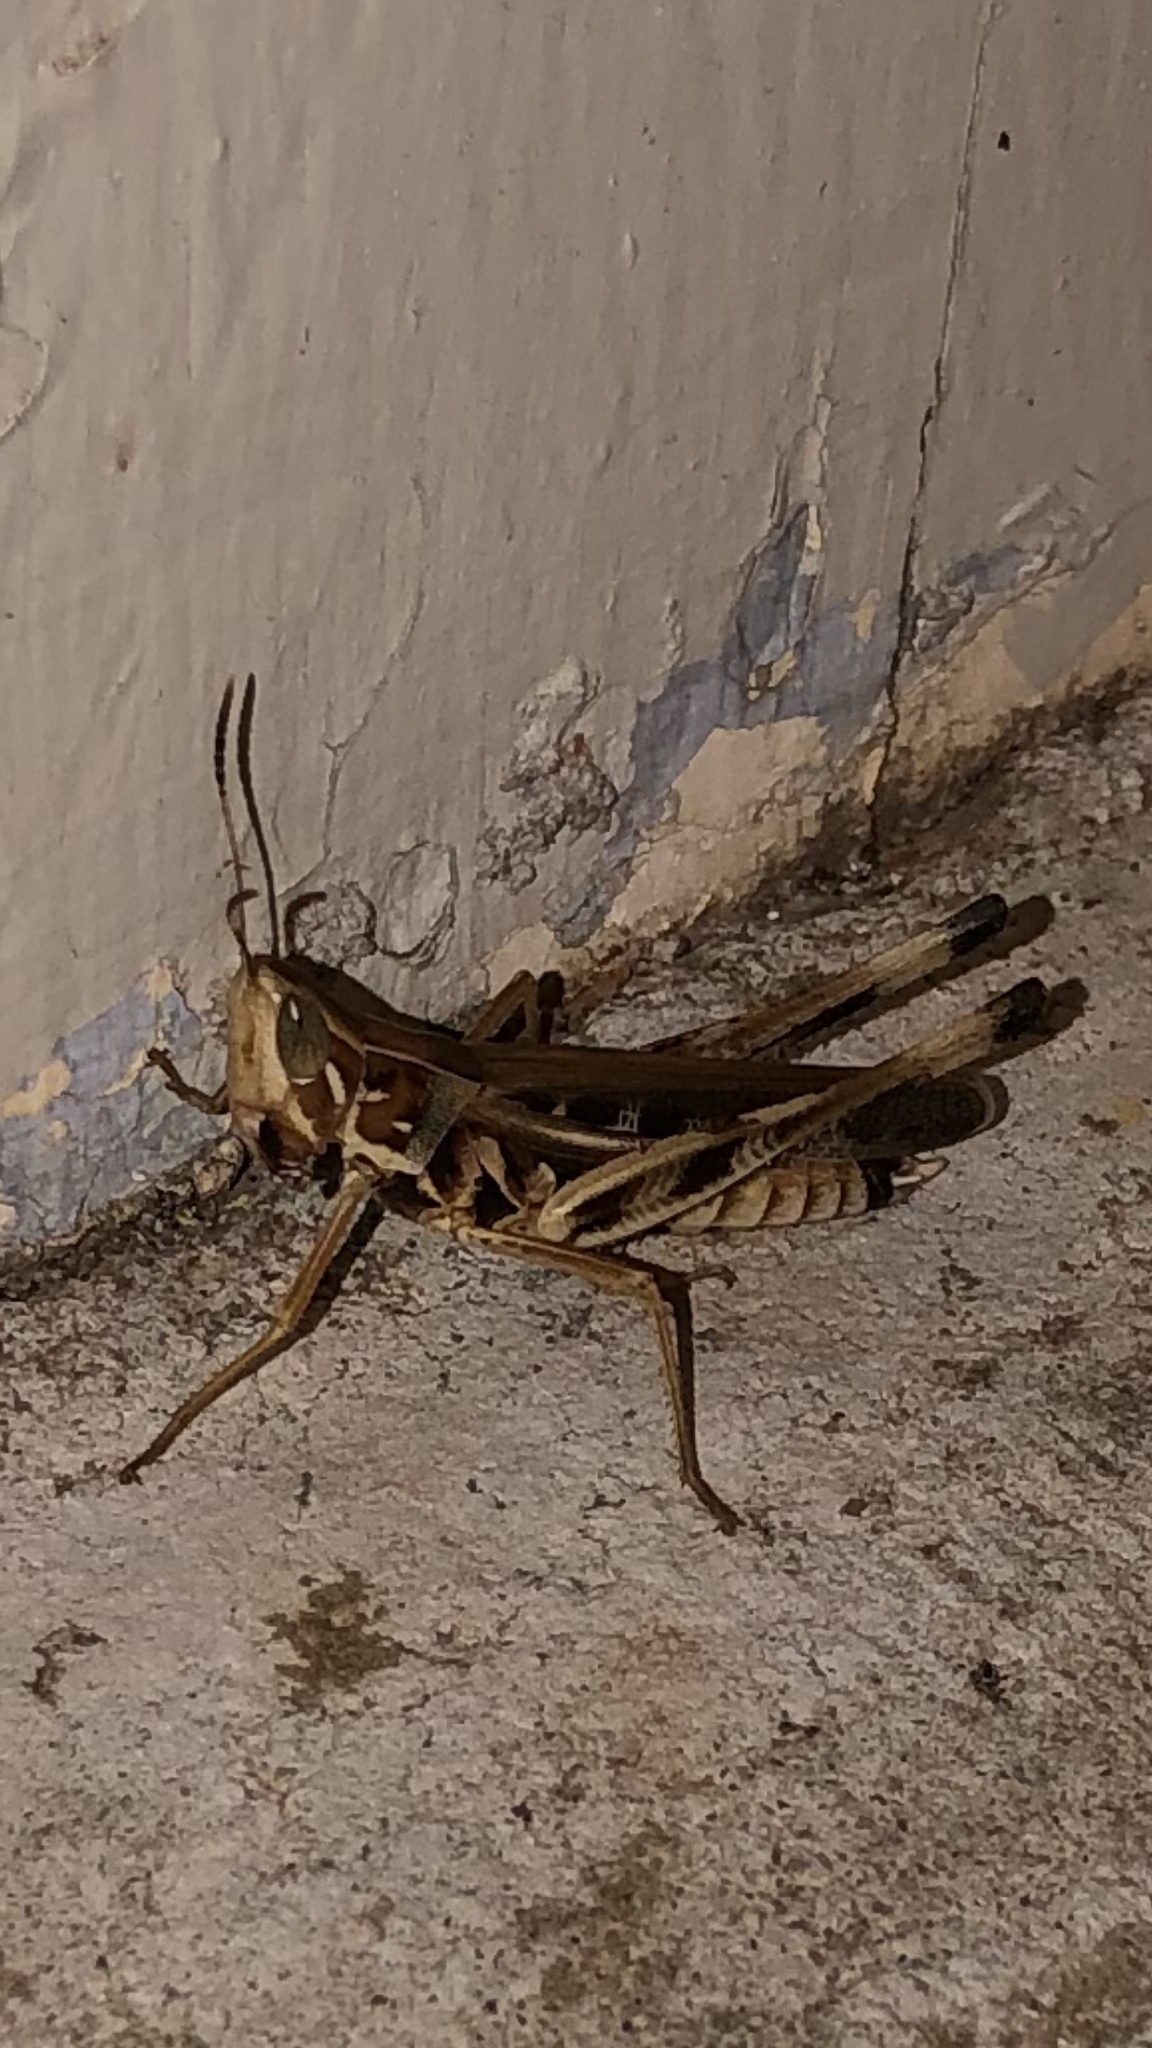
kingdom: Animalia
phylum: Arthropoda
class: Insecta
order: Orthoptera
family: Acrididae
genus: Syrbula
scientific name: Syrbula admirabilis
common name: Handsome grasshopper
